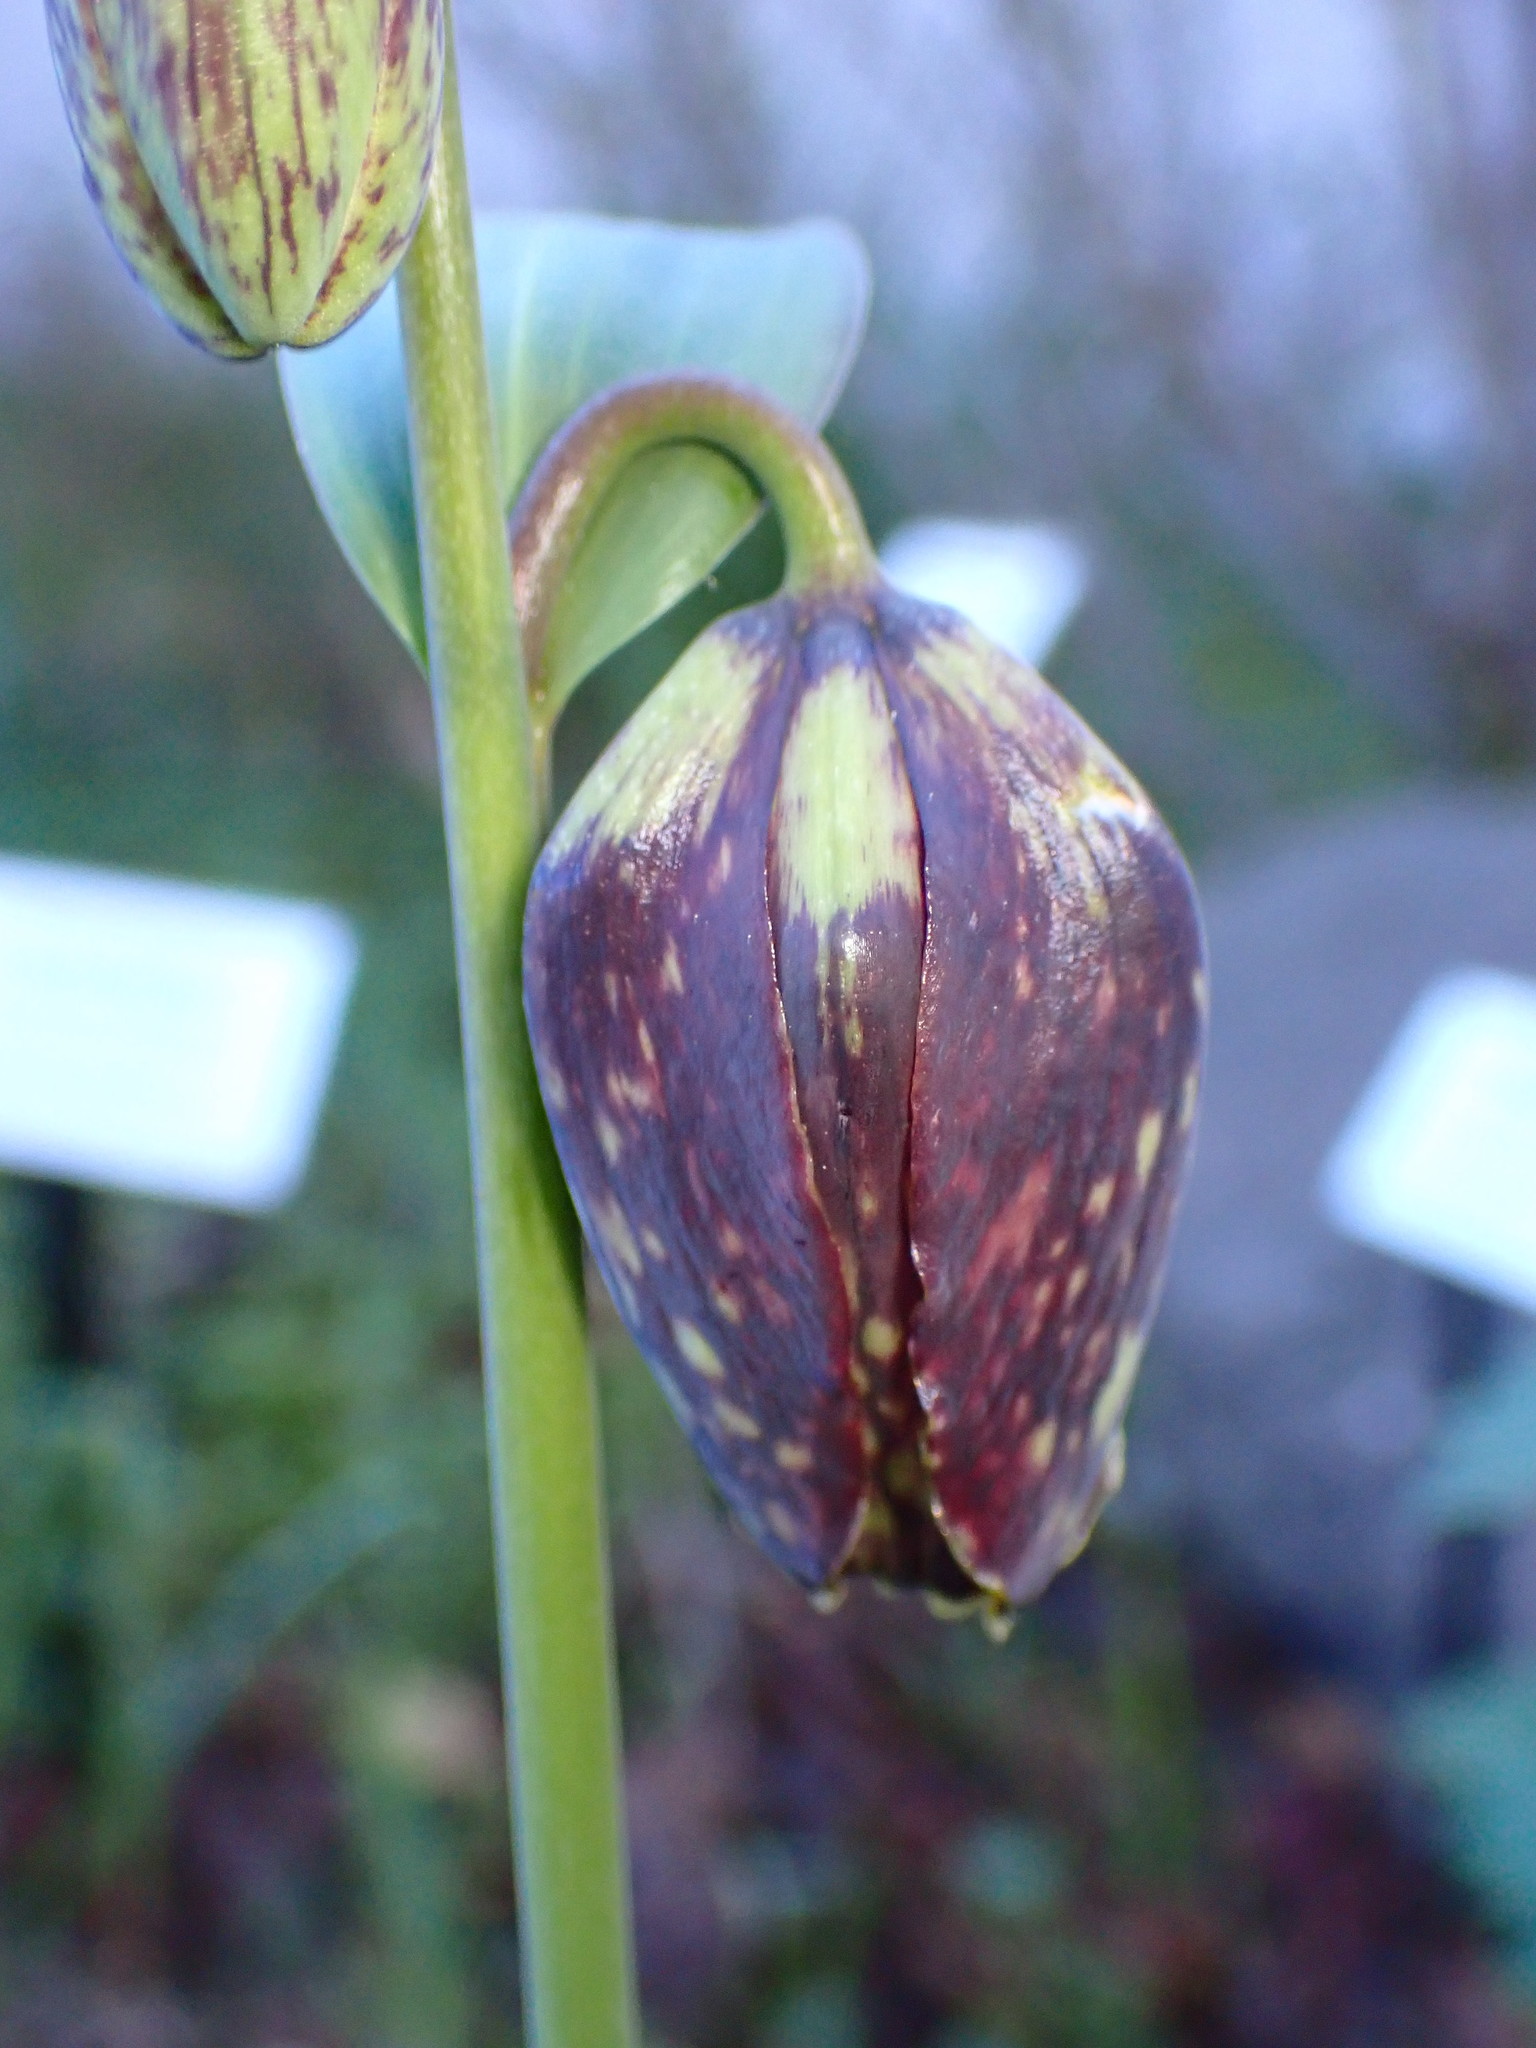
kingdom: Plantae
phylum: Tracheophyta
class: Liliopsida
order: Liliales
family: Liliaceae
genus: Fritillaria
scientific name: Fritillaria affinis
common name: Ojai fritillary
